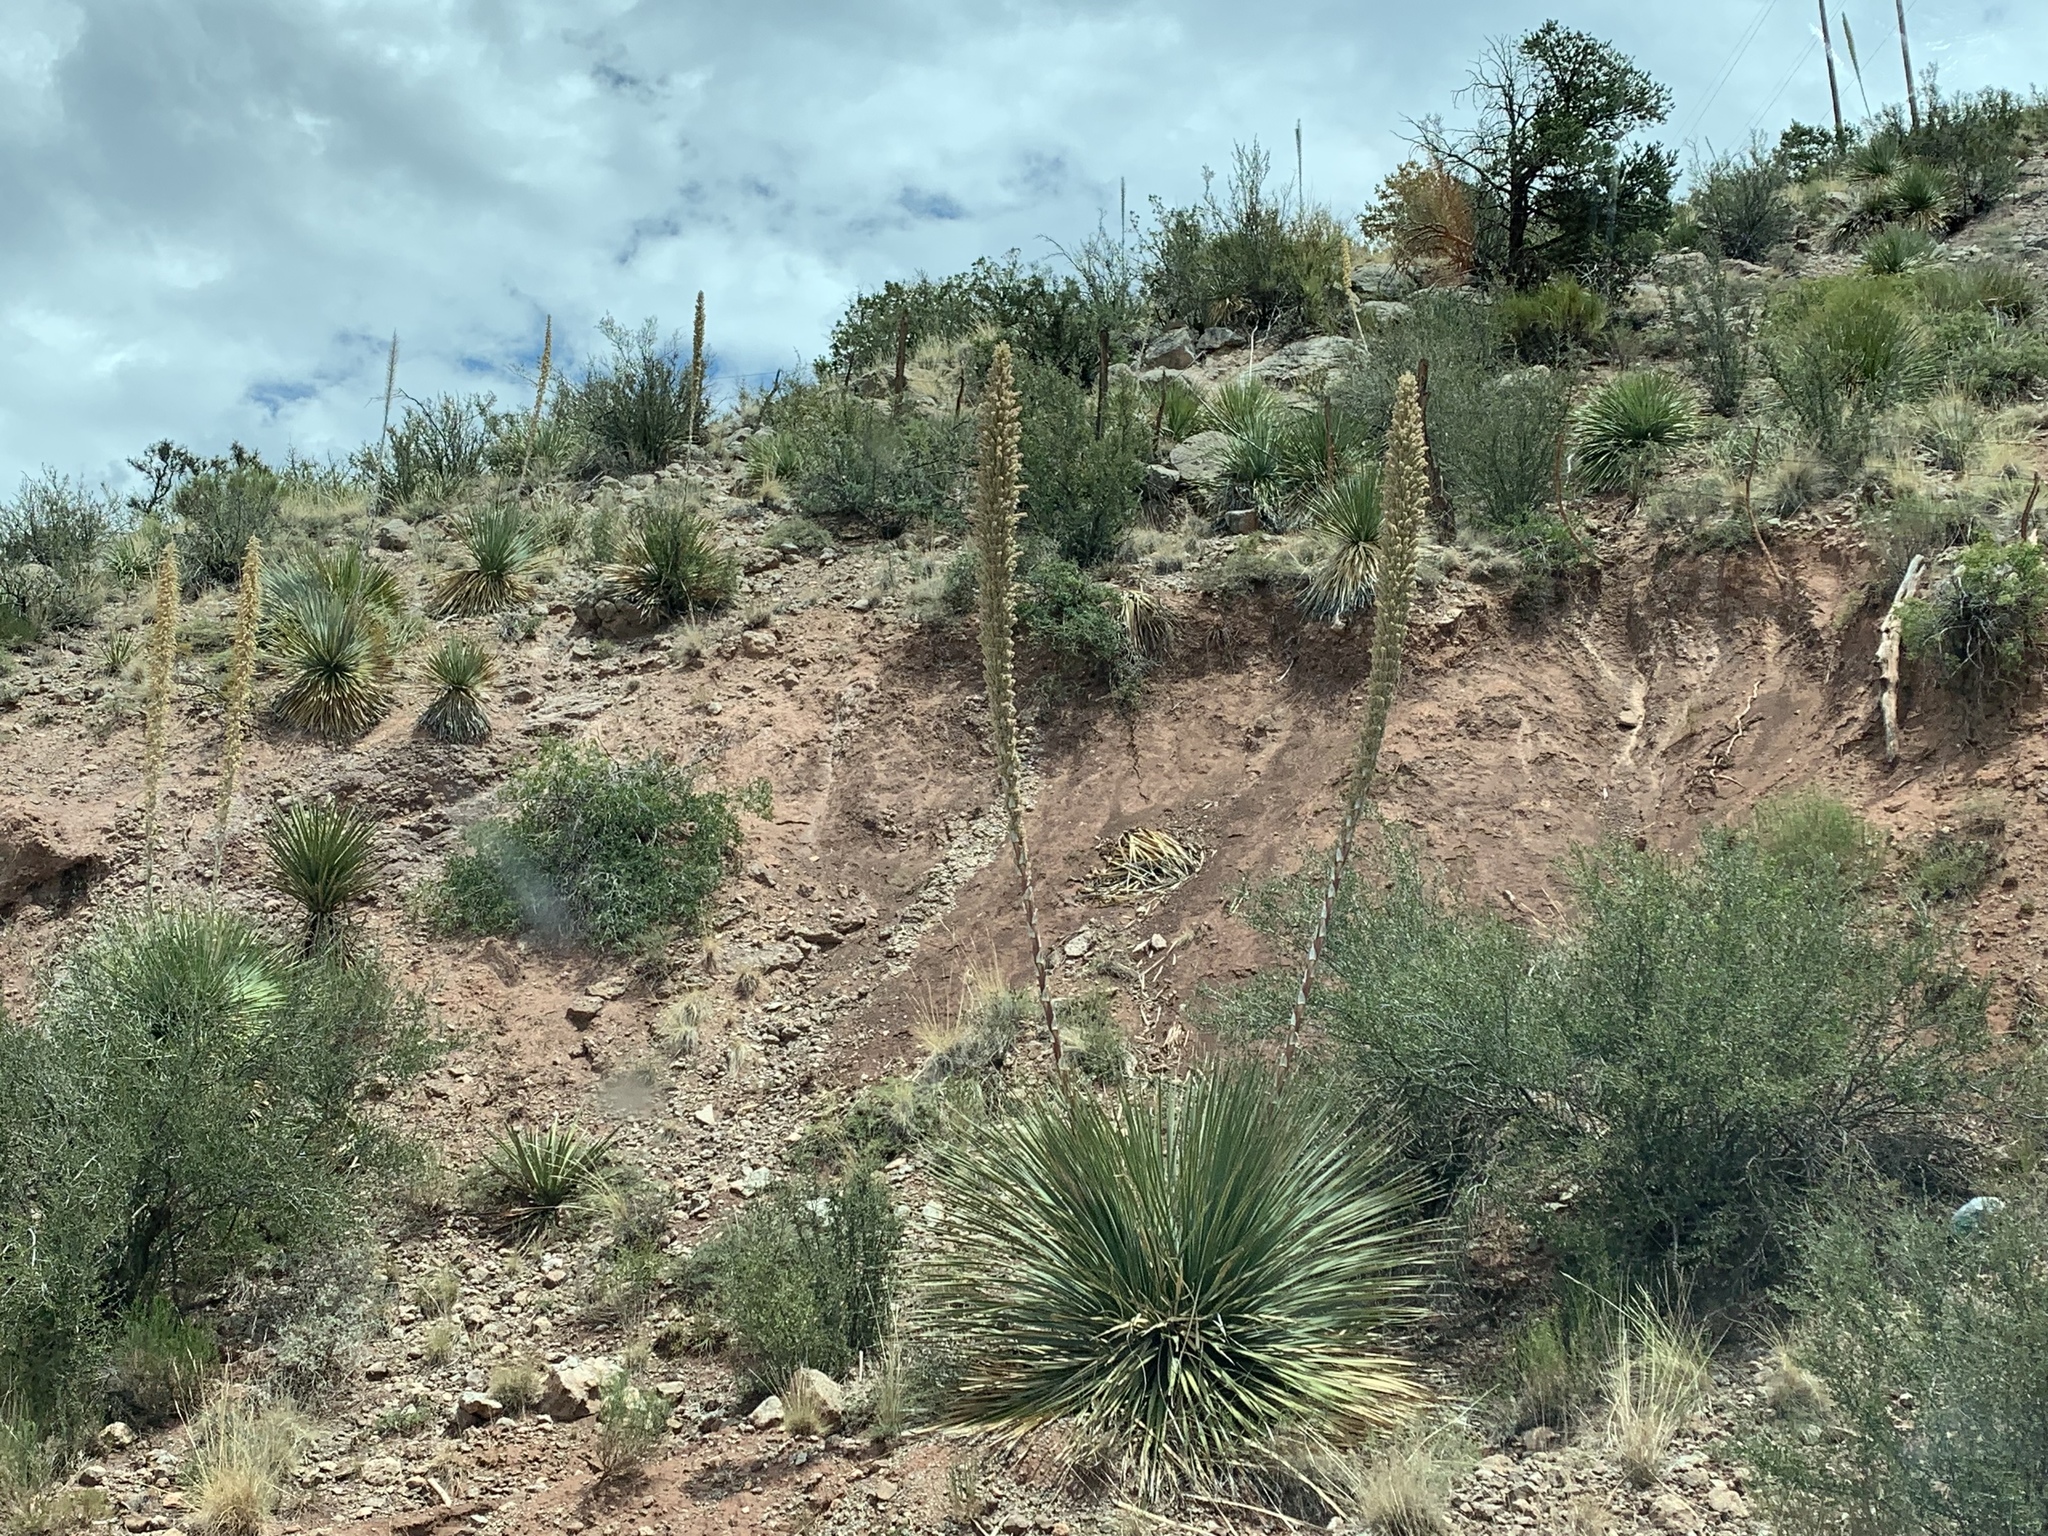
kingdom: Plantae
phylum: Tracheophyta
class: Liliopsida
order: Asparagales
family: Asparagaceae
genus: Dasylirion
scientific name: Dasylirion wheeleri
